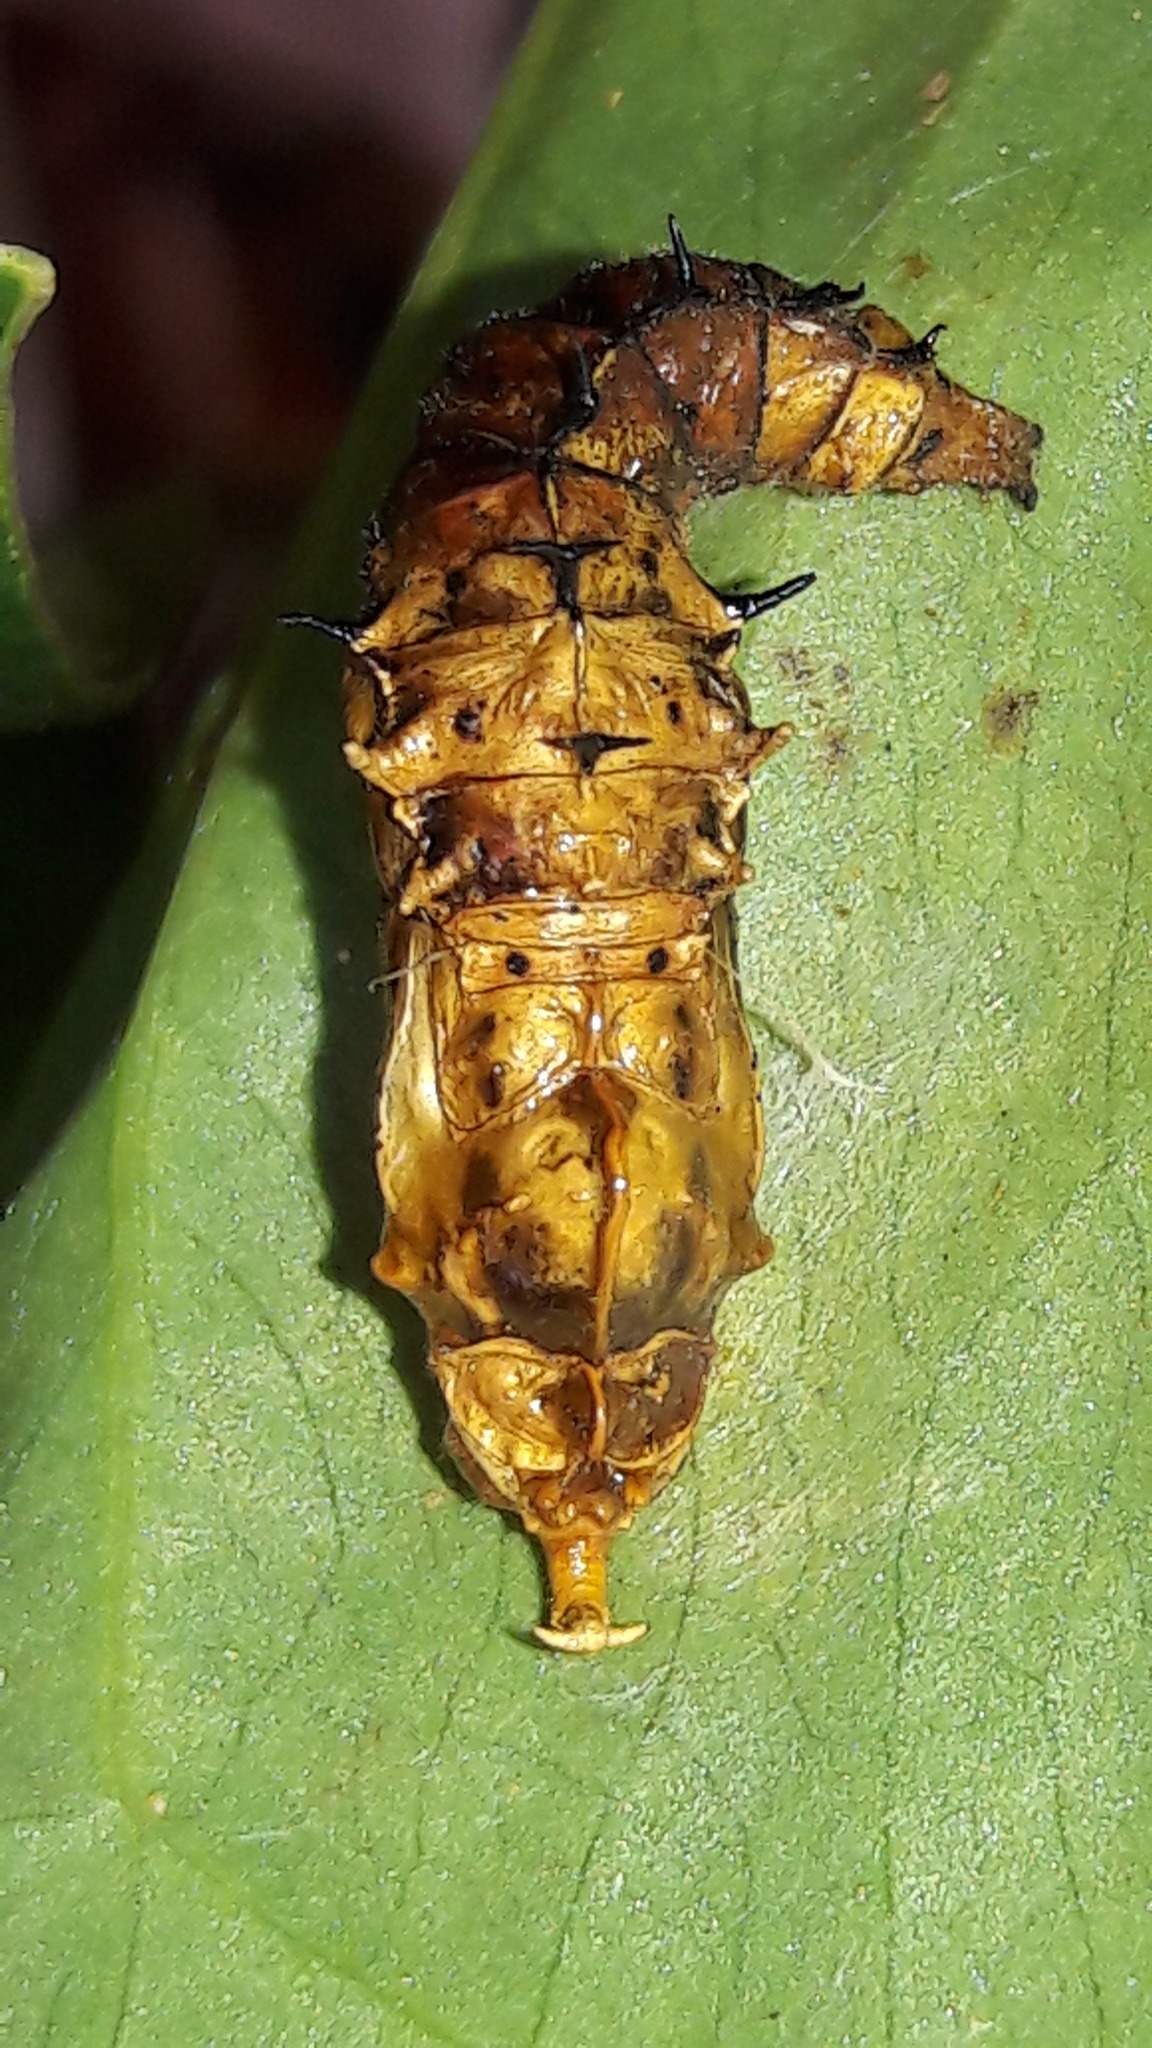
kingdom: Animalia
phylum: Arthropoda
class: Insecta
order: Lepidoptera
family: Pieridae
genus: Melete
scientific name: Melete lycimnia
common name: Common melwhite
